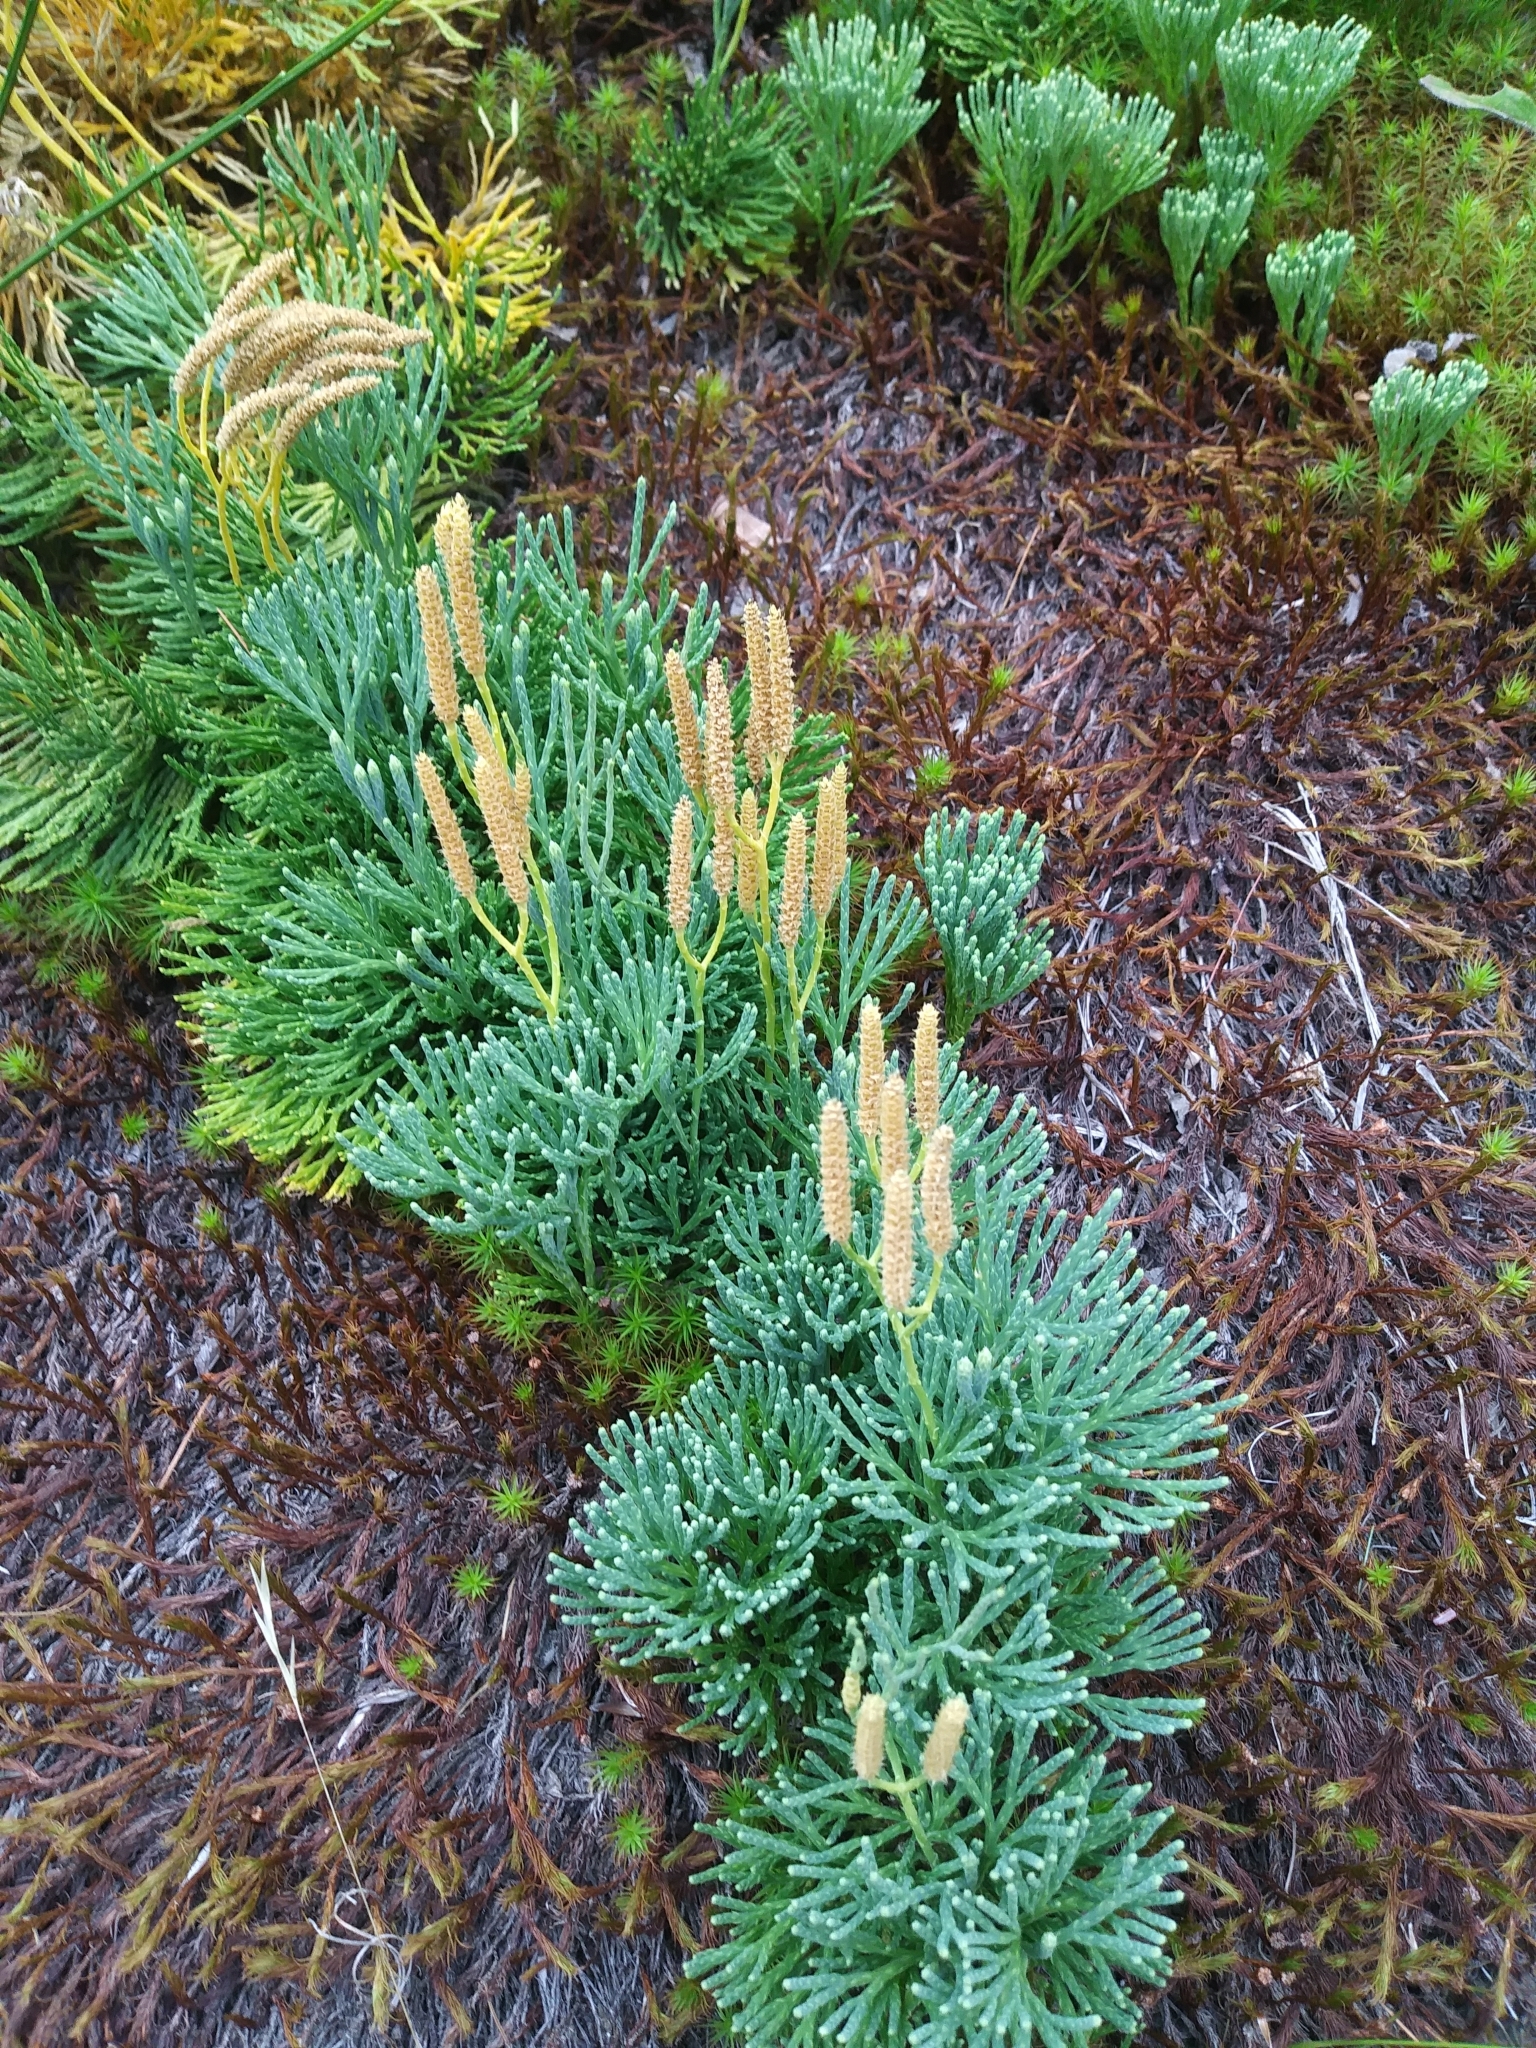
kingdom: Plantae
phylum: Tracheophyta
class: Lycopodiopsida
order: Lycopodiales
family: Lycopodiaceae
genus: Diphasiastrum
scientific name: Diphasiastrum tristachyum
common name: Blue ground-cedar
